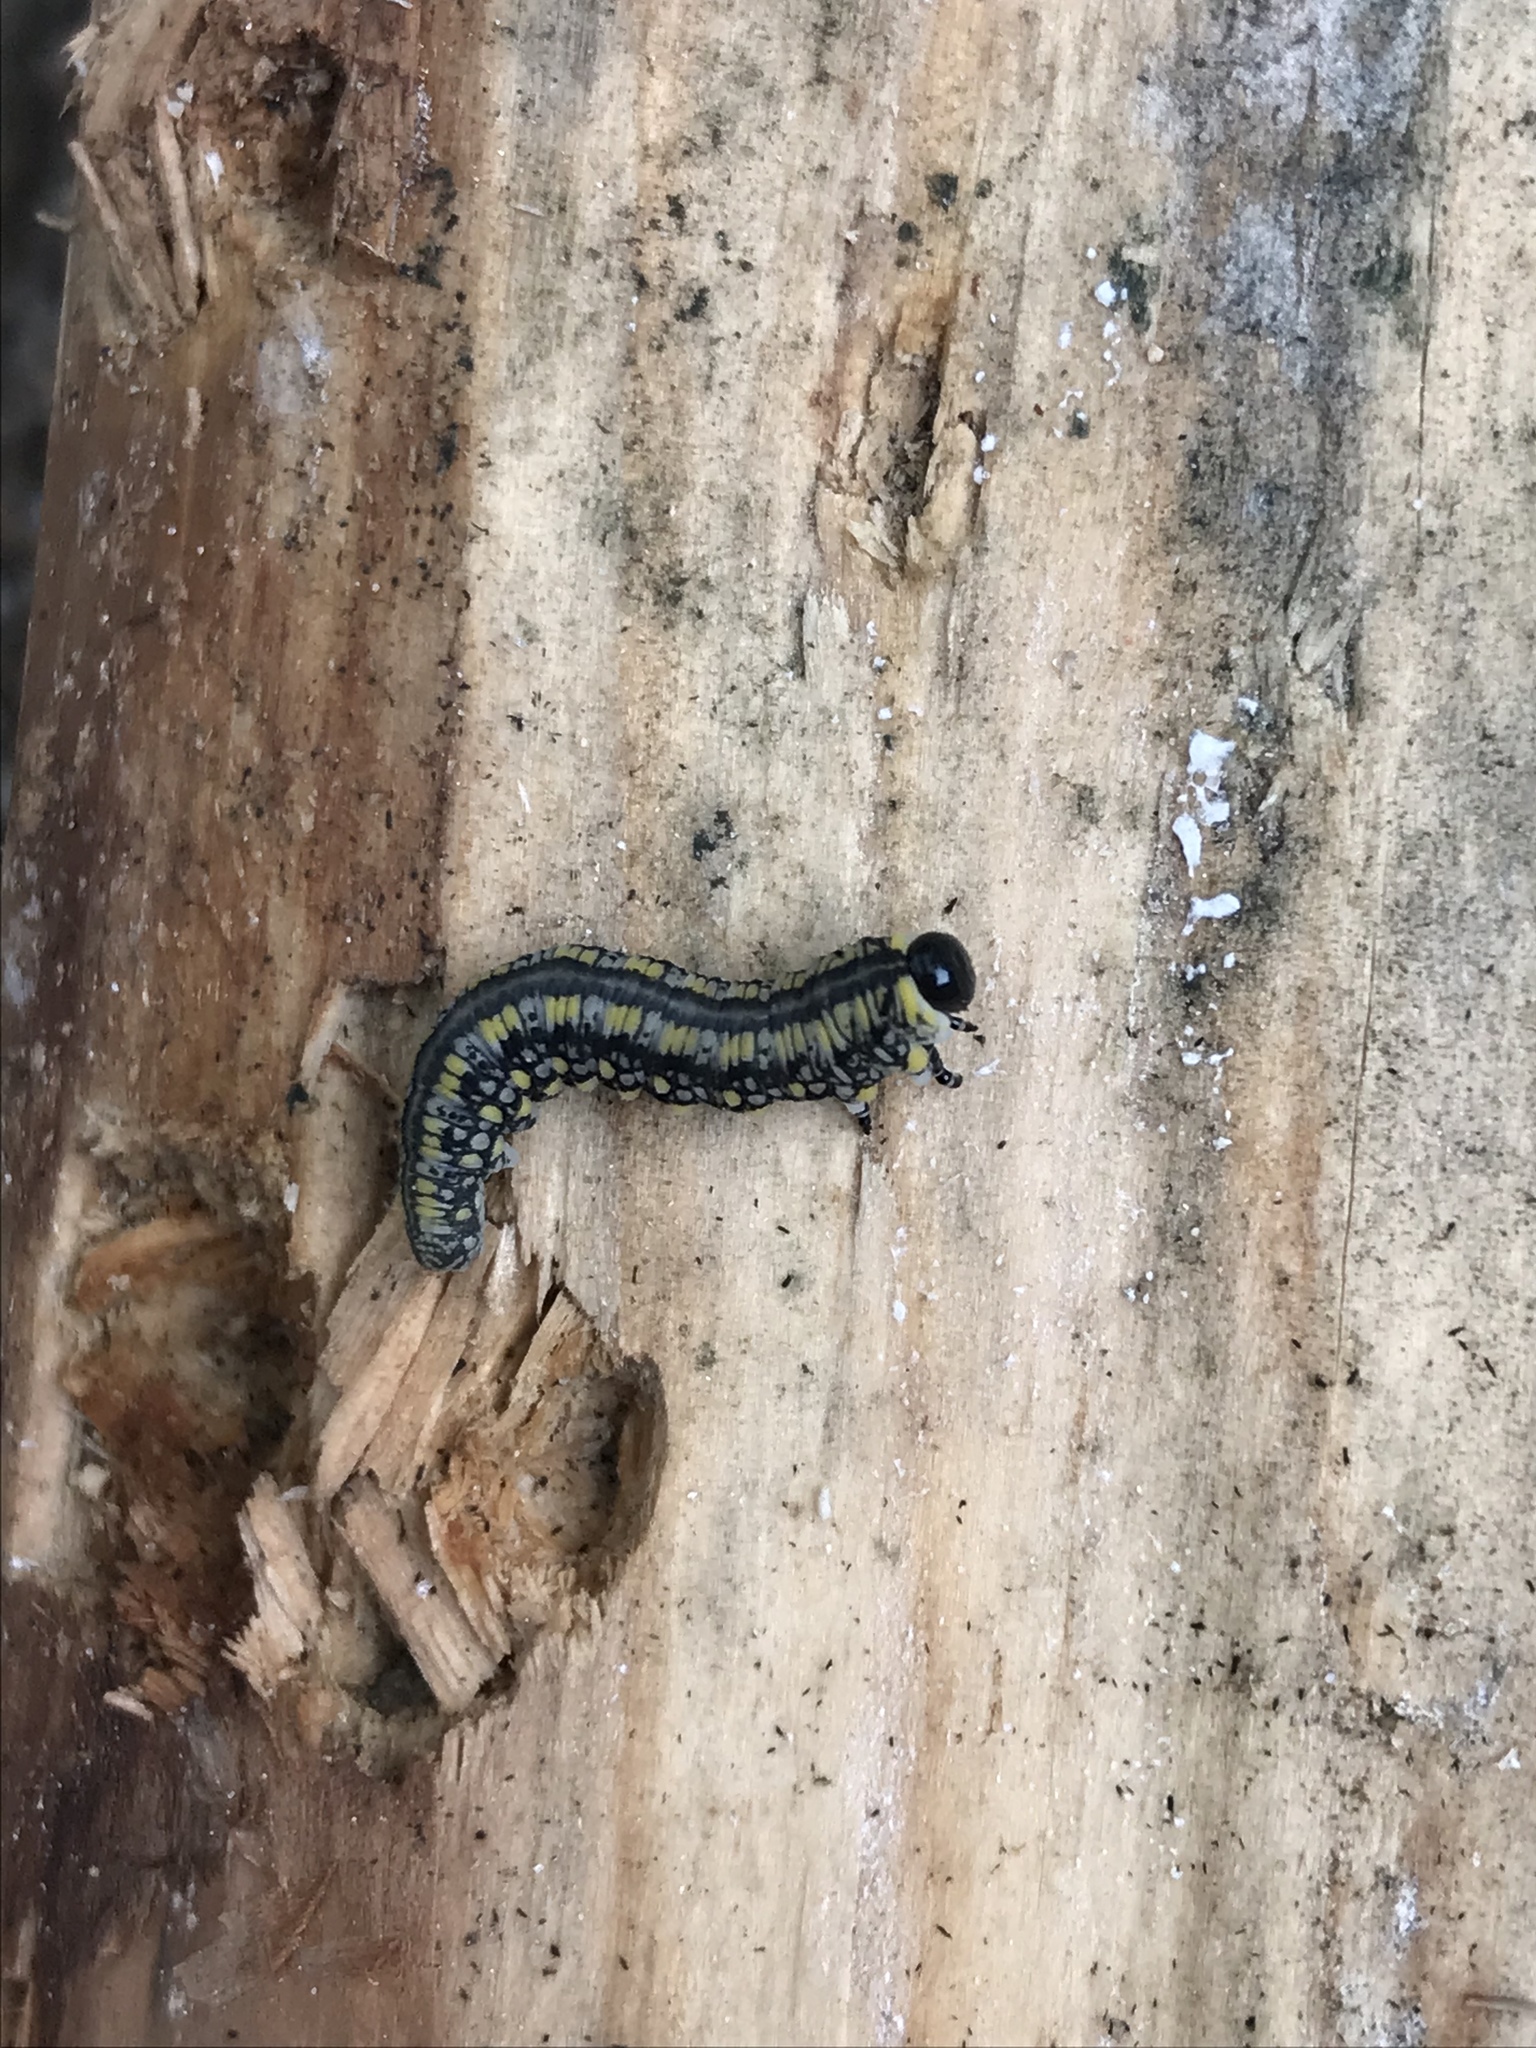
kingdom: Animalia
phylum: Arthropoda
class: Insecta
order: Hymenoptera
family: Diprionidae
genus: Diprion
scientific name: Diprion similis
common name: Pine sawfly
